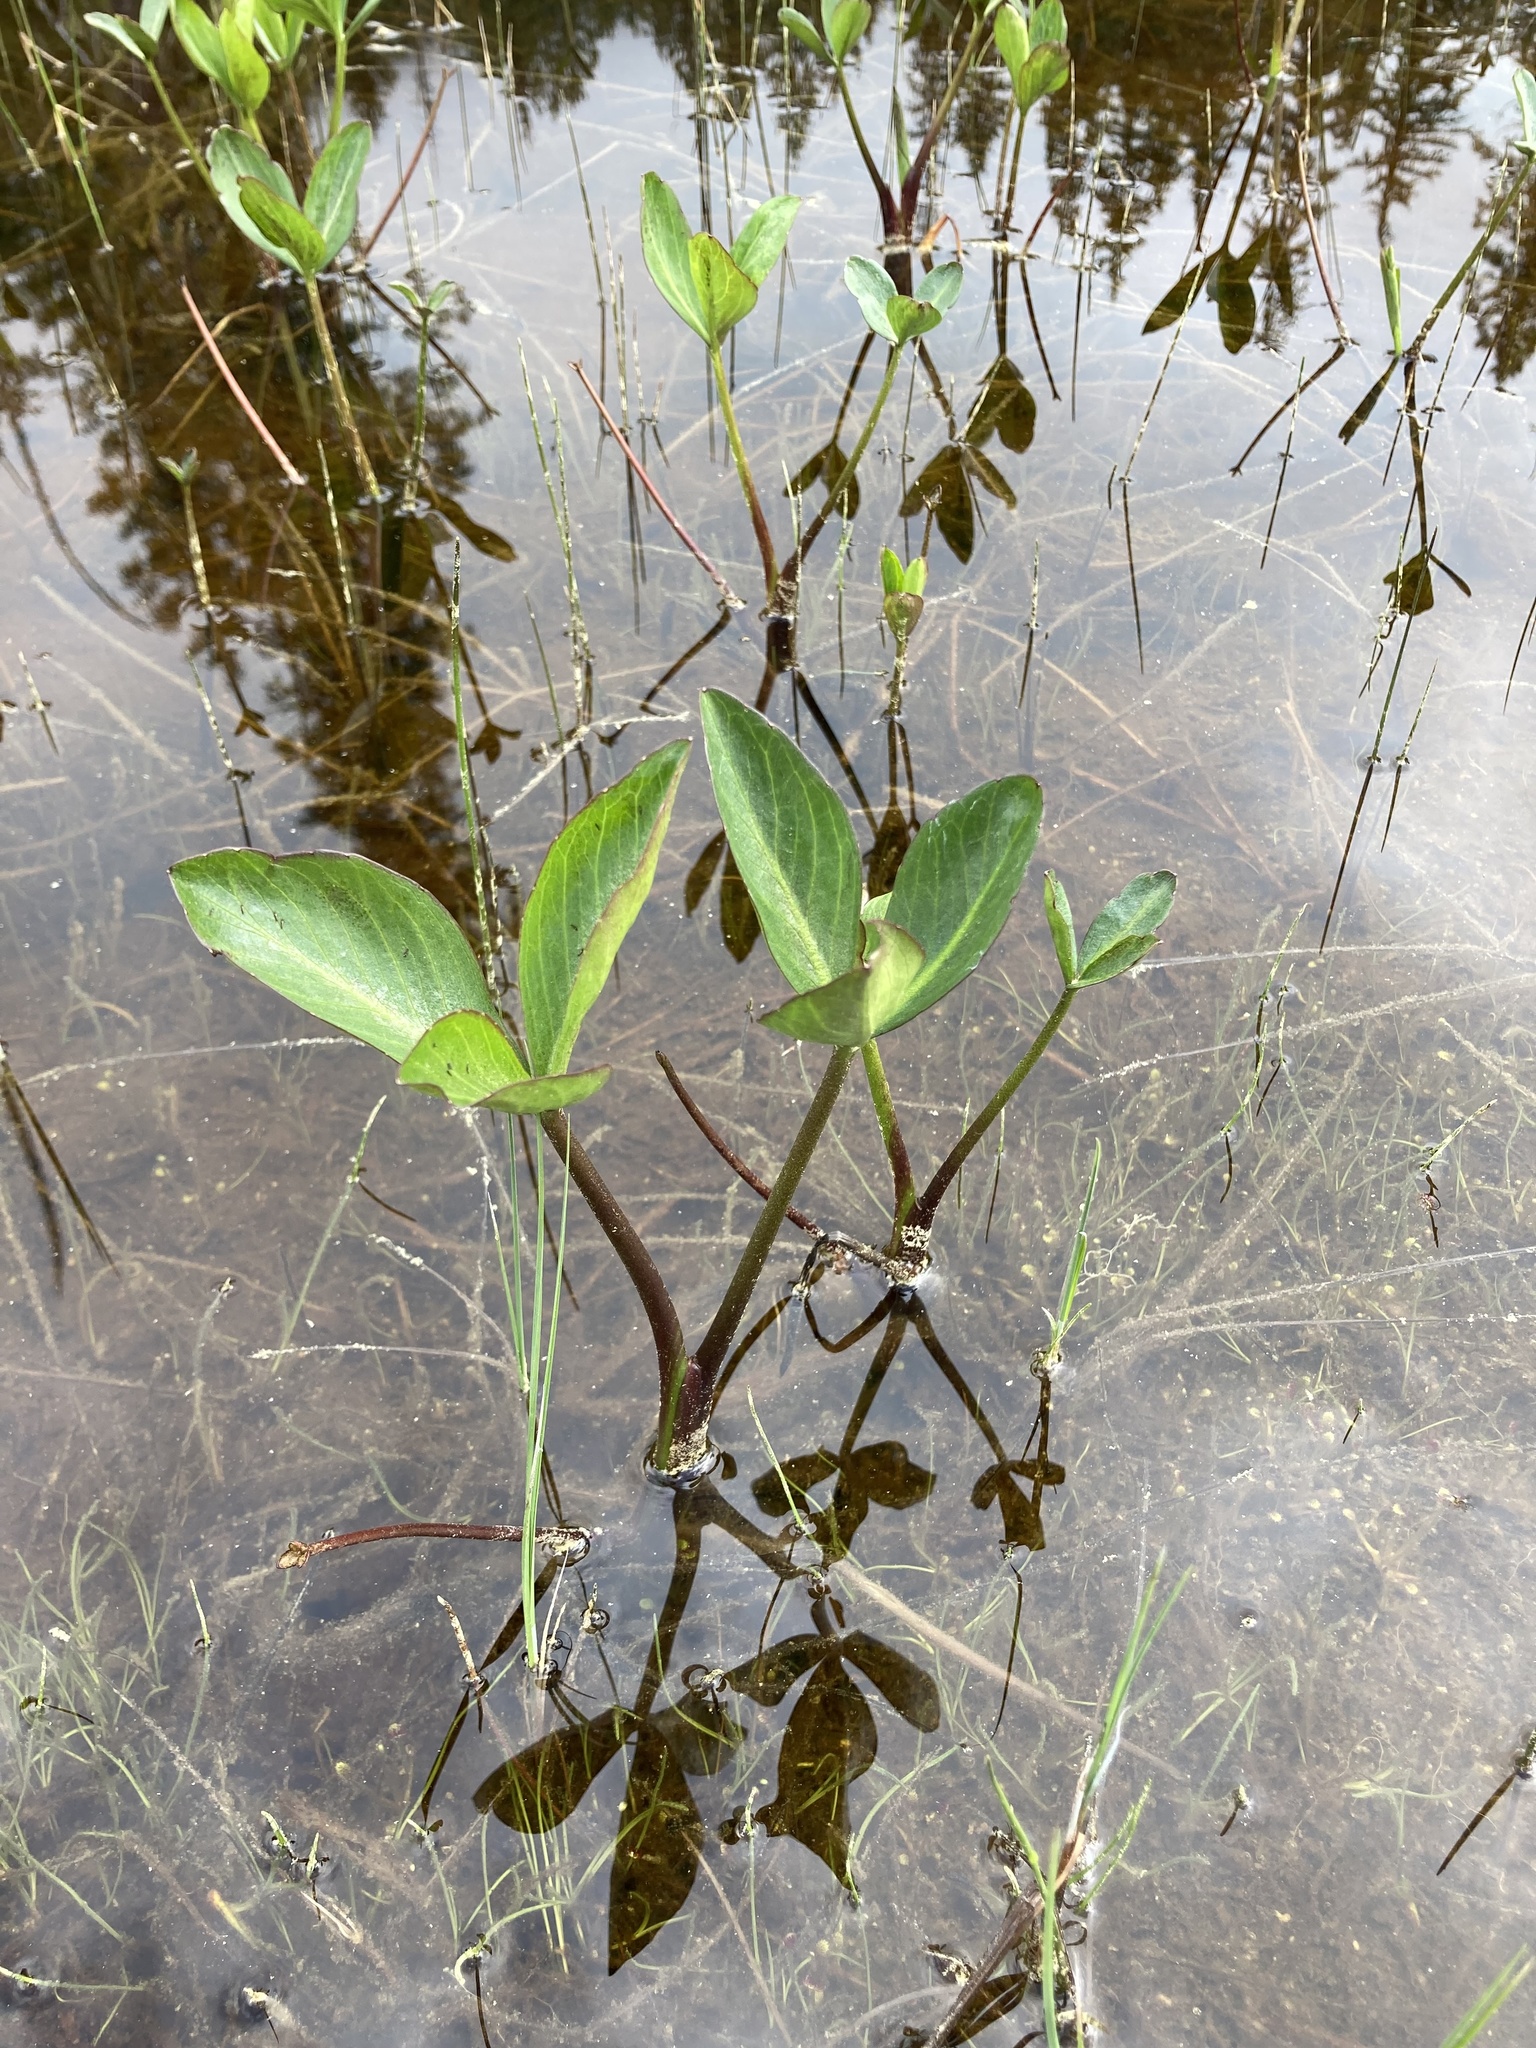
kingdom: Plantae
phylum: Tracheophyta
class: Magnoliopsida
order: Asterales
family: Menyanthaceae
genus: Menyanthes
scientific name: Menyanthes trifoliata
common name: Bogbean
